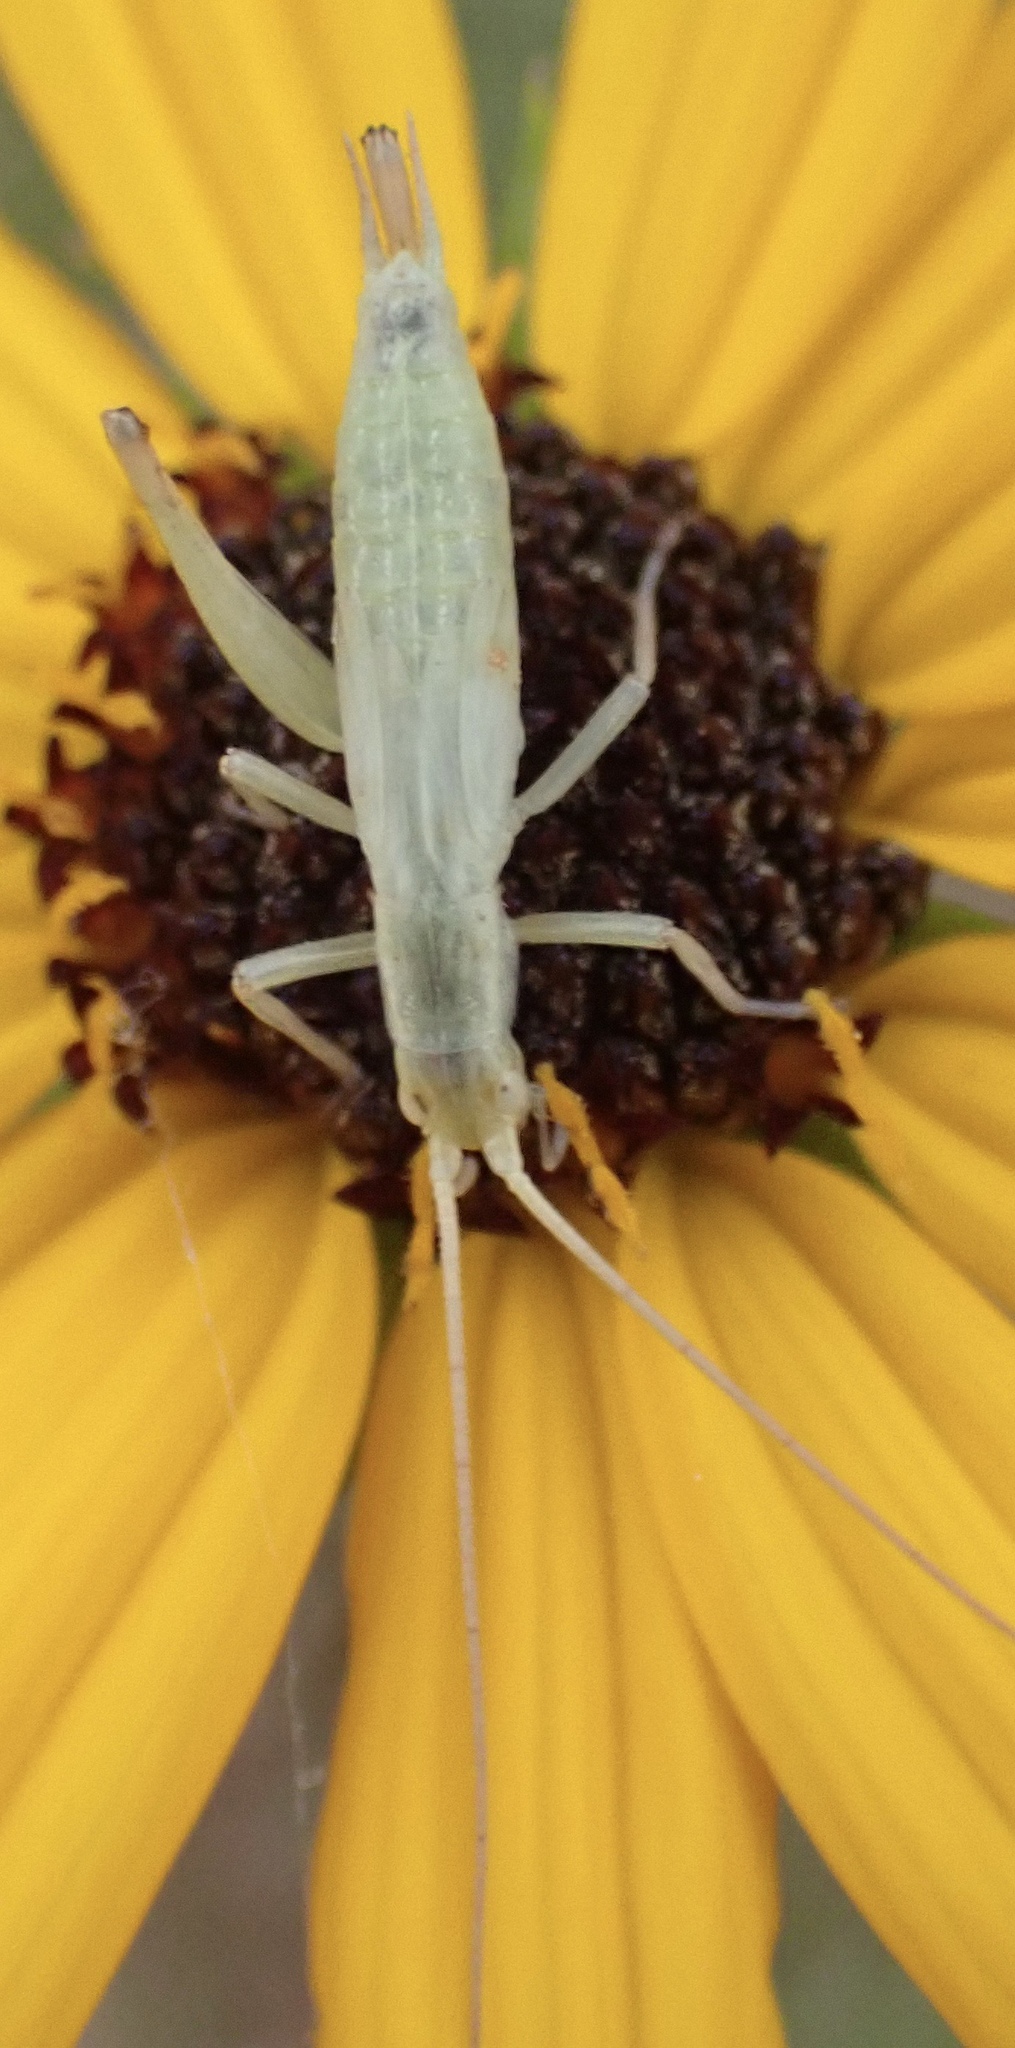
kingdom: Animalia
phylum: Arthropoda
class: Insecta
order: Orthoptera
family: Gryllidae
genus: Oecanthus
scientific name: Oecanthus
